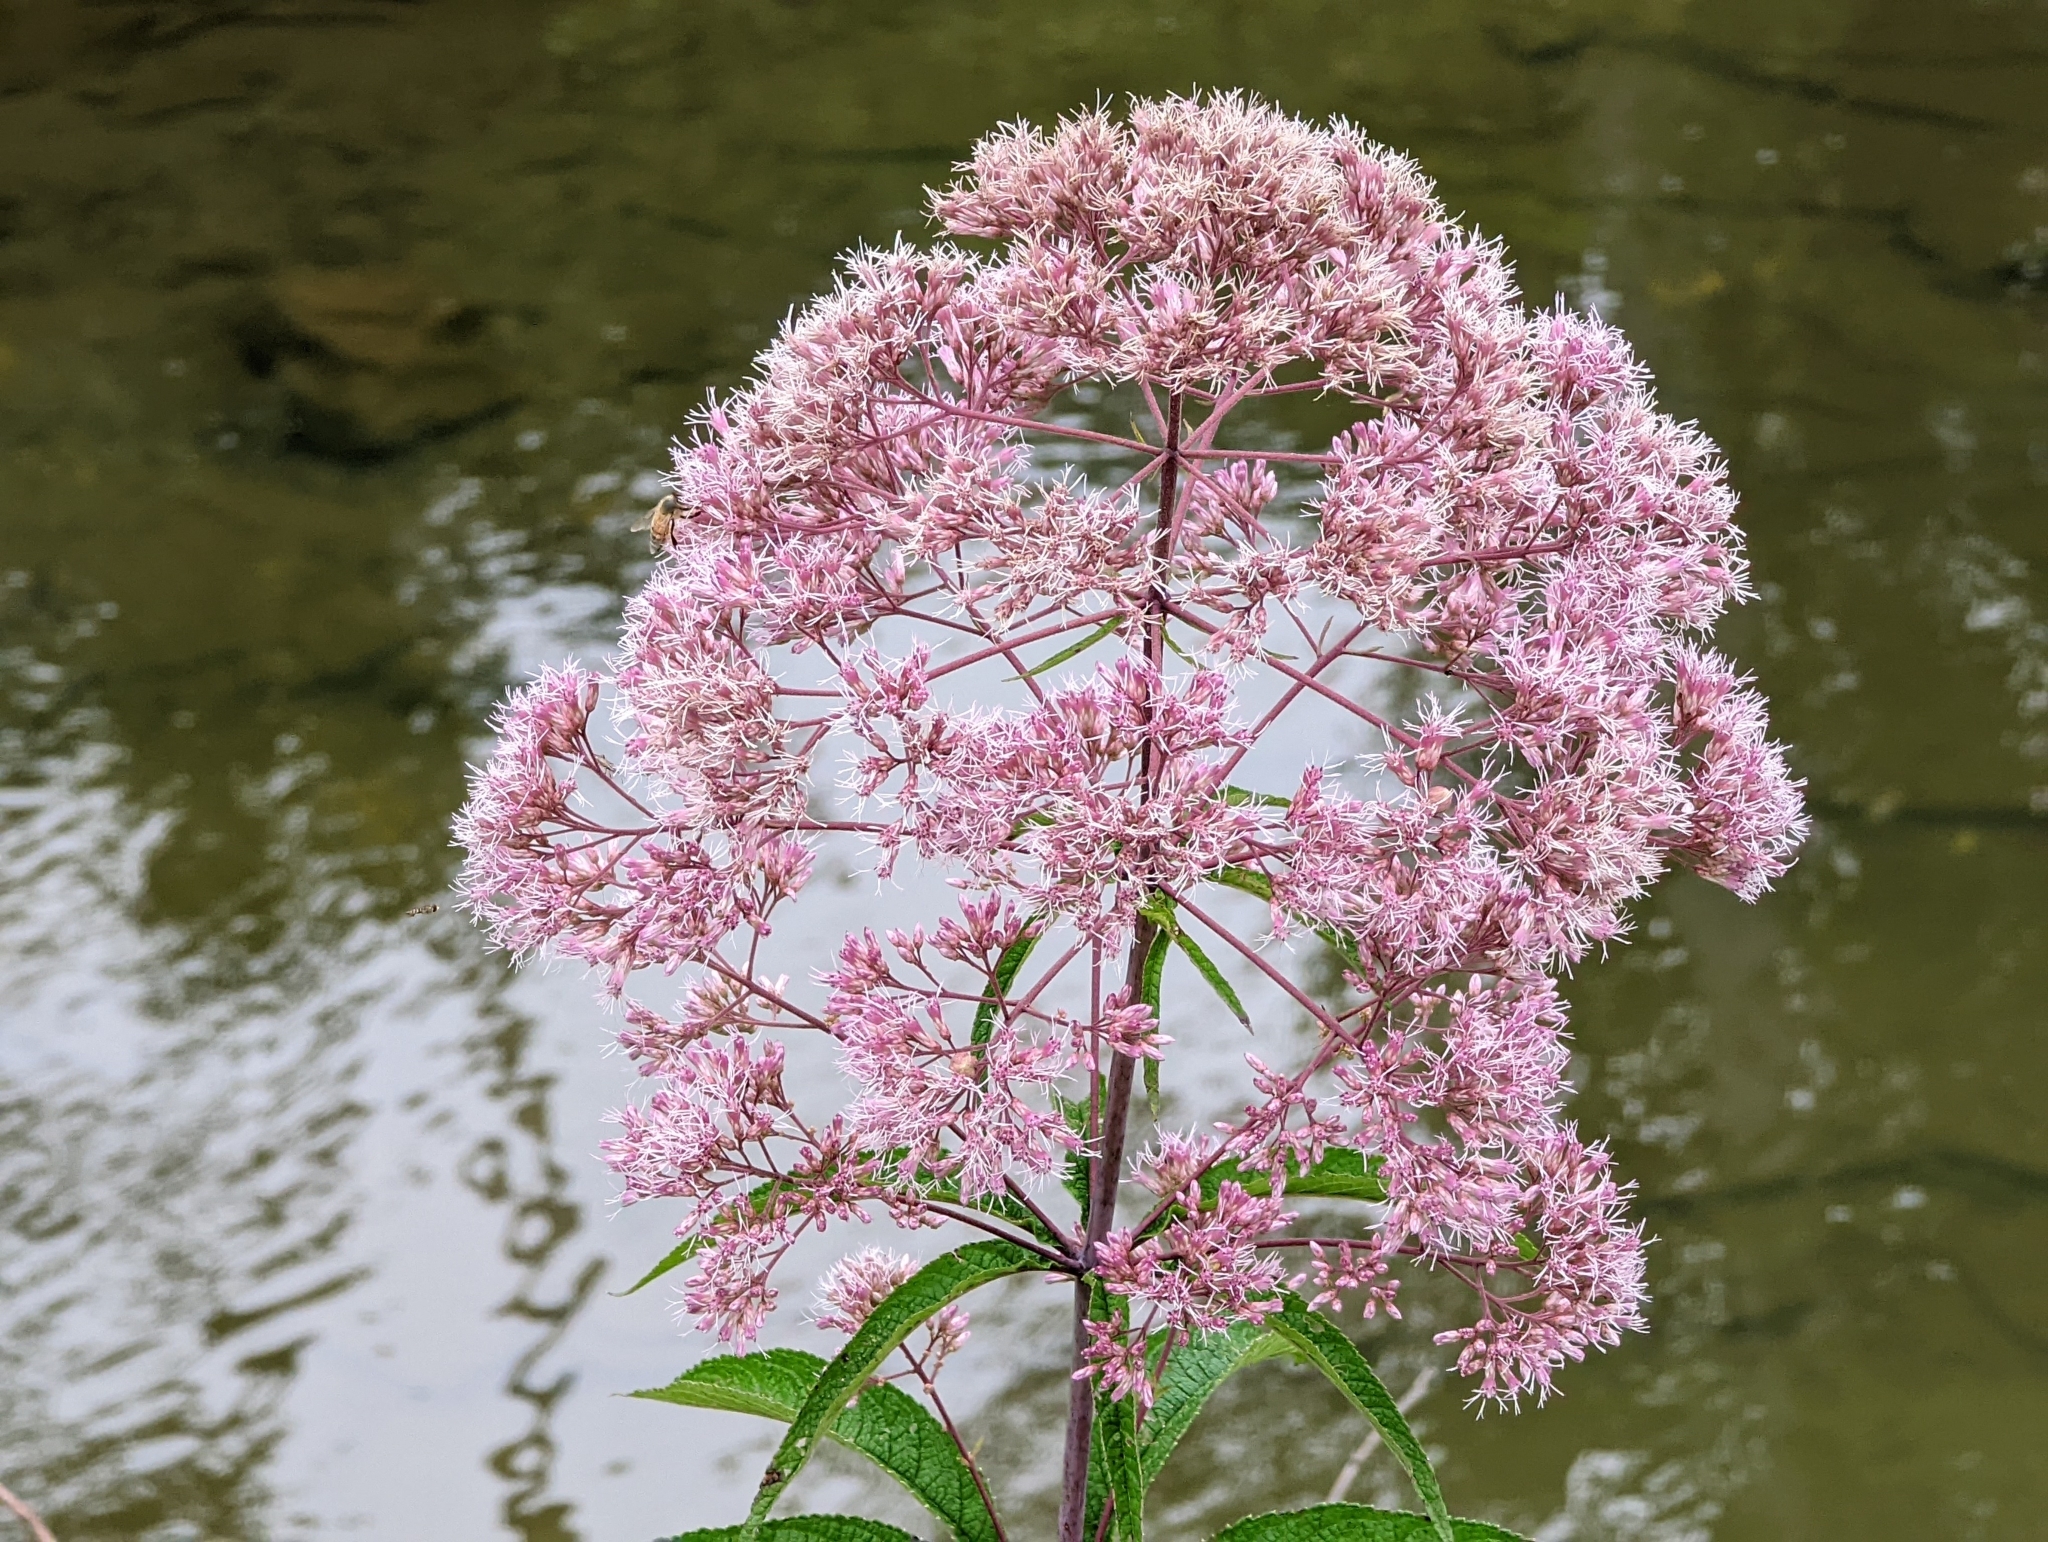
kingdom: Plantae
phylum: Tracheophyta
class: Magnoliopsida
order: Asterales
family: Asteraceae
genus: Eutrochium
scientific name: Eutrochium fistulosum
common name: Trumpetweed
